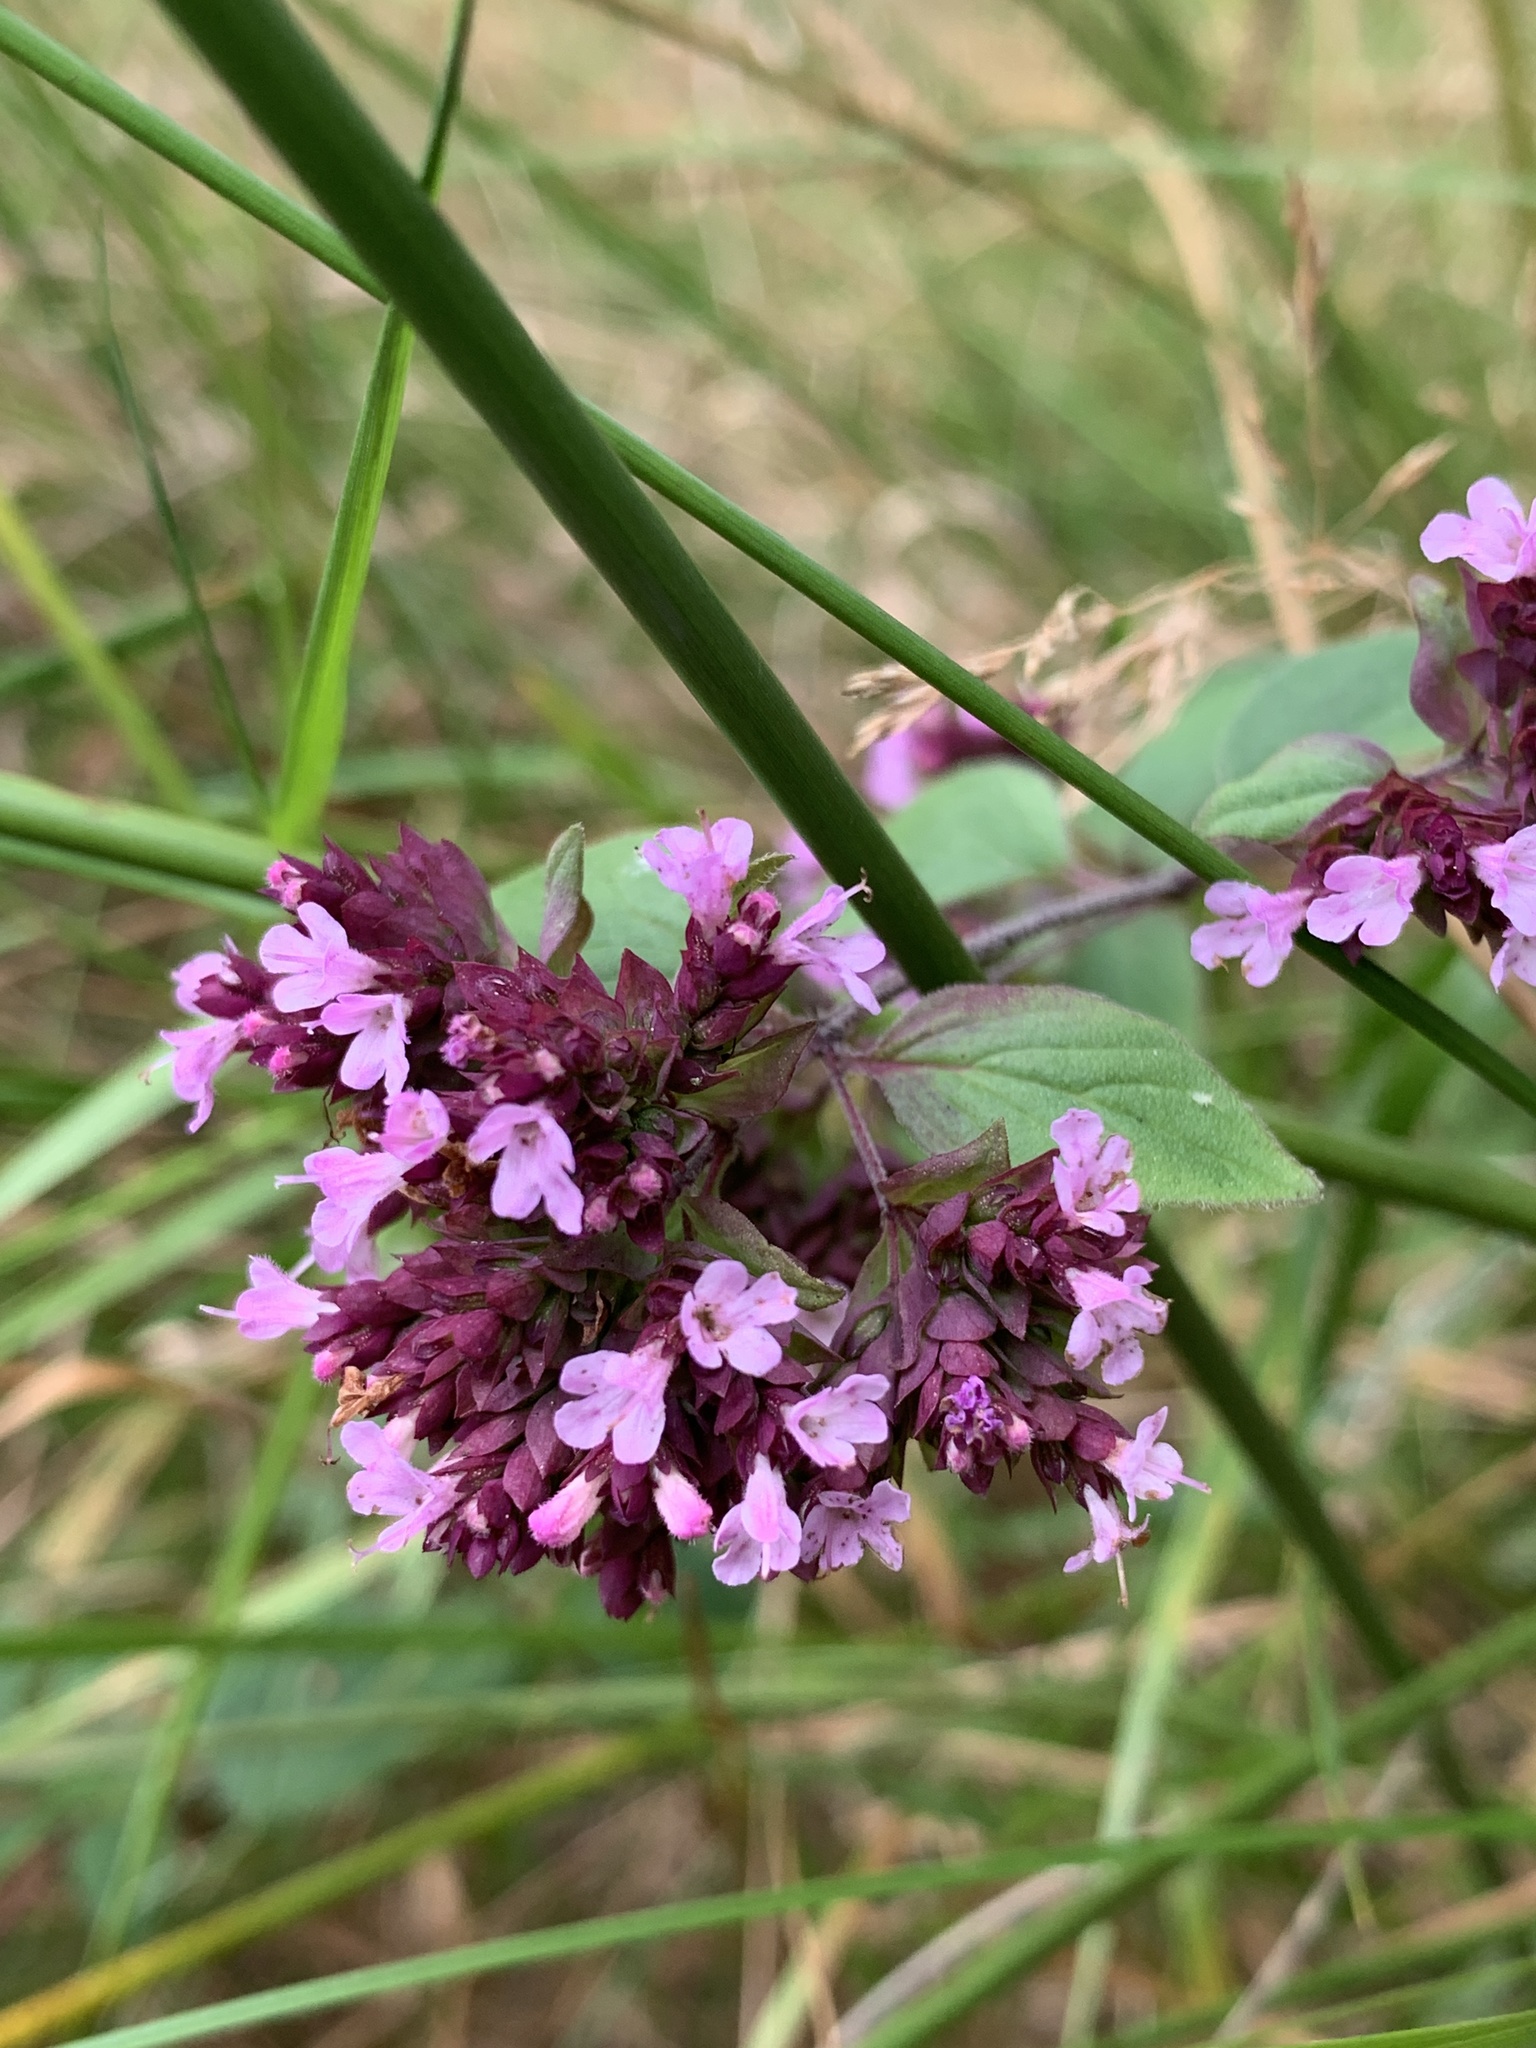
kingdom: Plantae
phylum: Tracheophyta
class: Magnoliopsida
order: Lamiales
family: Lamiaceae
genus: Origanum
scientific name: Origanum vulgare
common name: Wild marjoram
